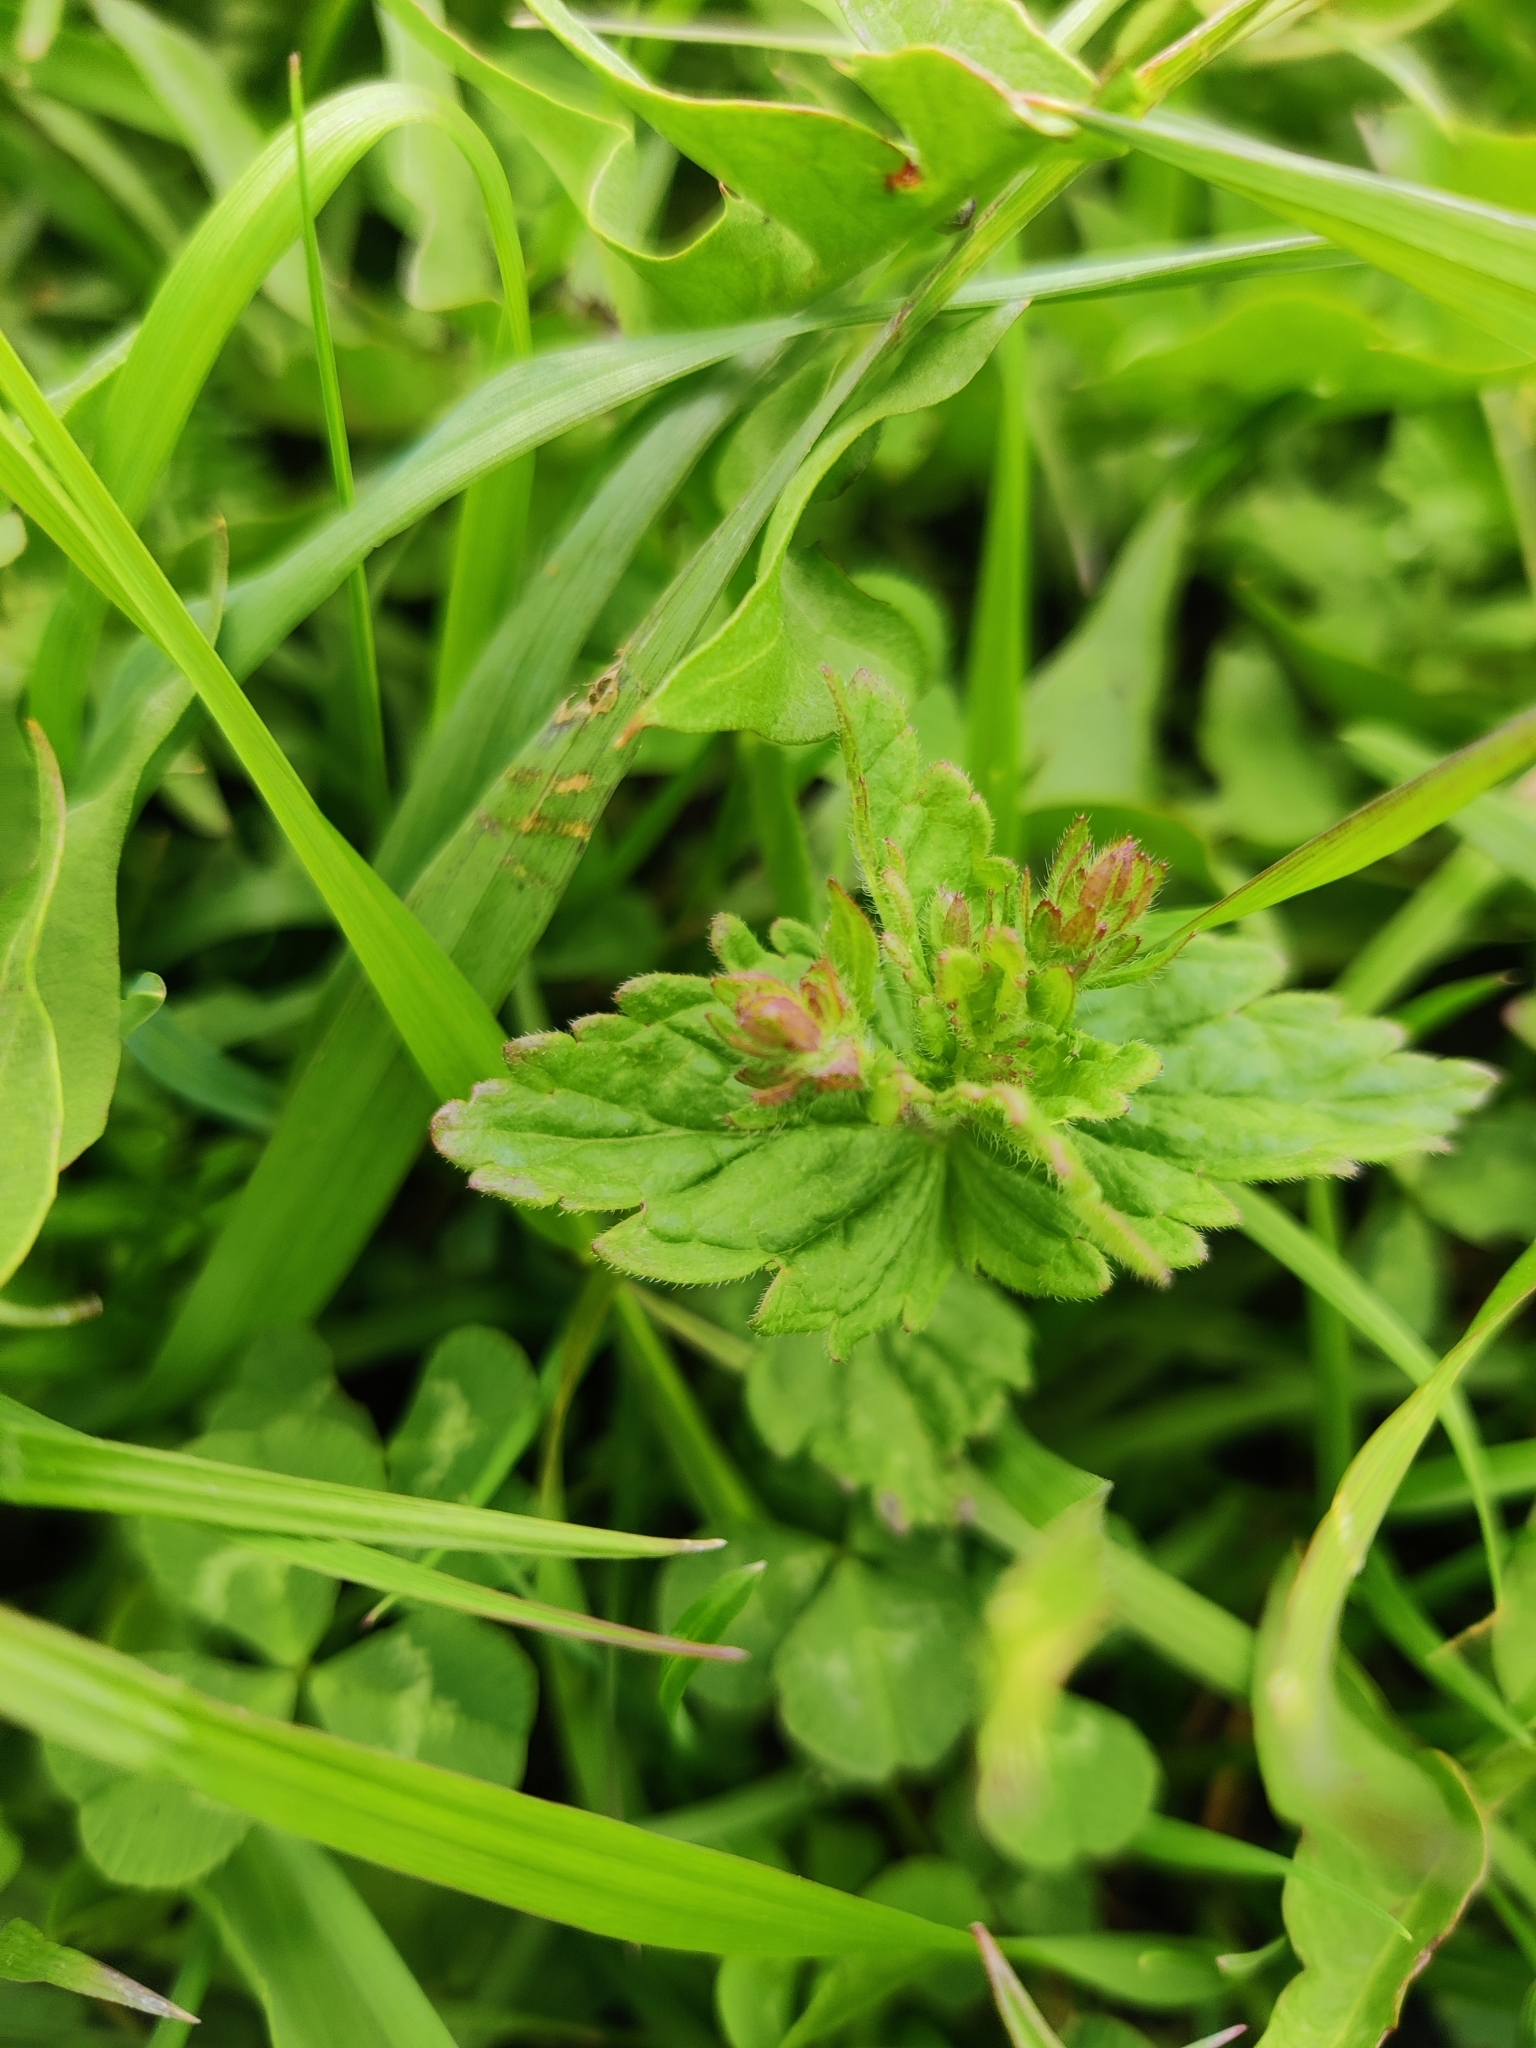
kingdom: Plantae
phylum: Tracheophyta
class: Magnoliopsida
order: Lamiales
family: Plantaginaceae
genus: Veronica
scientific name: Veronica chamaedrys
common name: Germander speedwell
